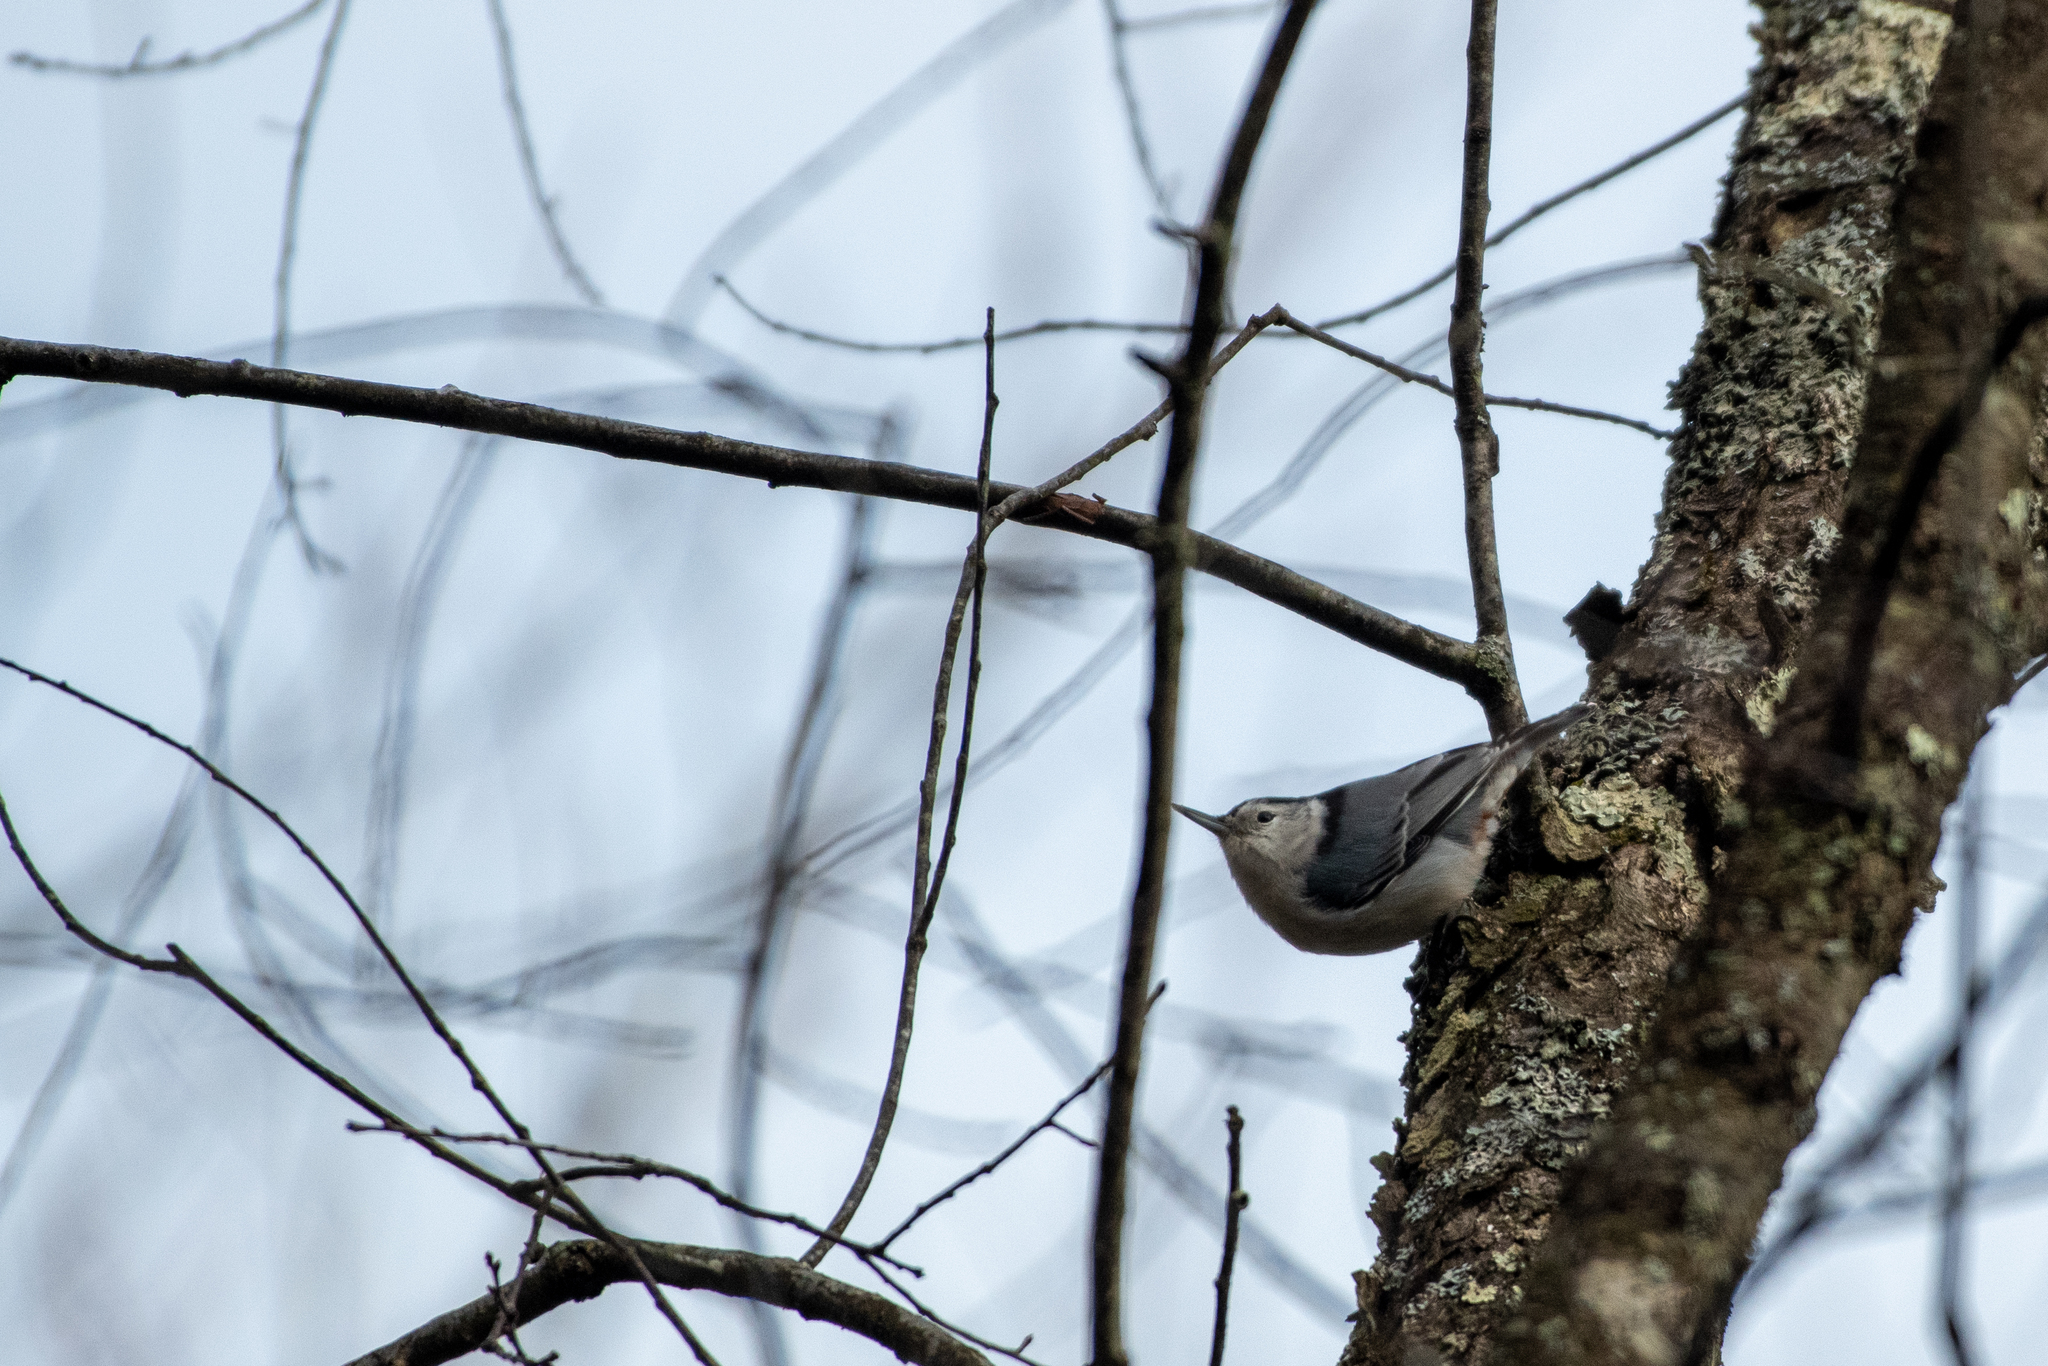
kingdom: Animalia
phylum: Chordata
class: Aves
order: Passeriformes
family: Sittidae
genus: Sitta
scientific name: Sitta carolinensis
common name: White-breasted nuthatch
